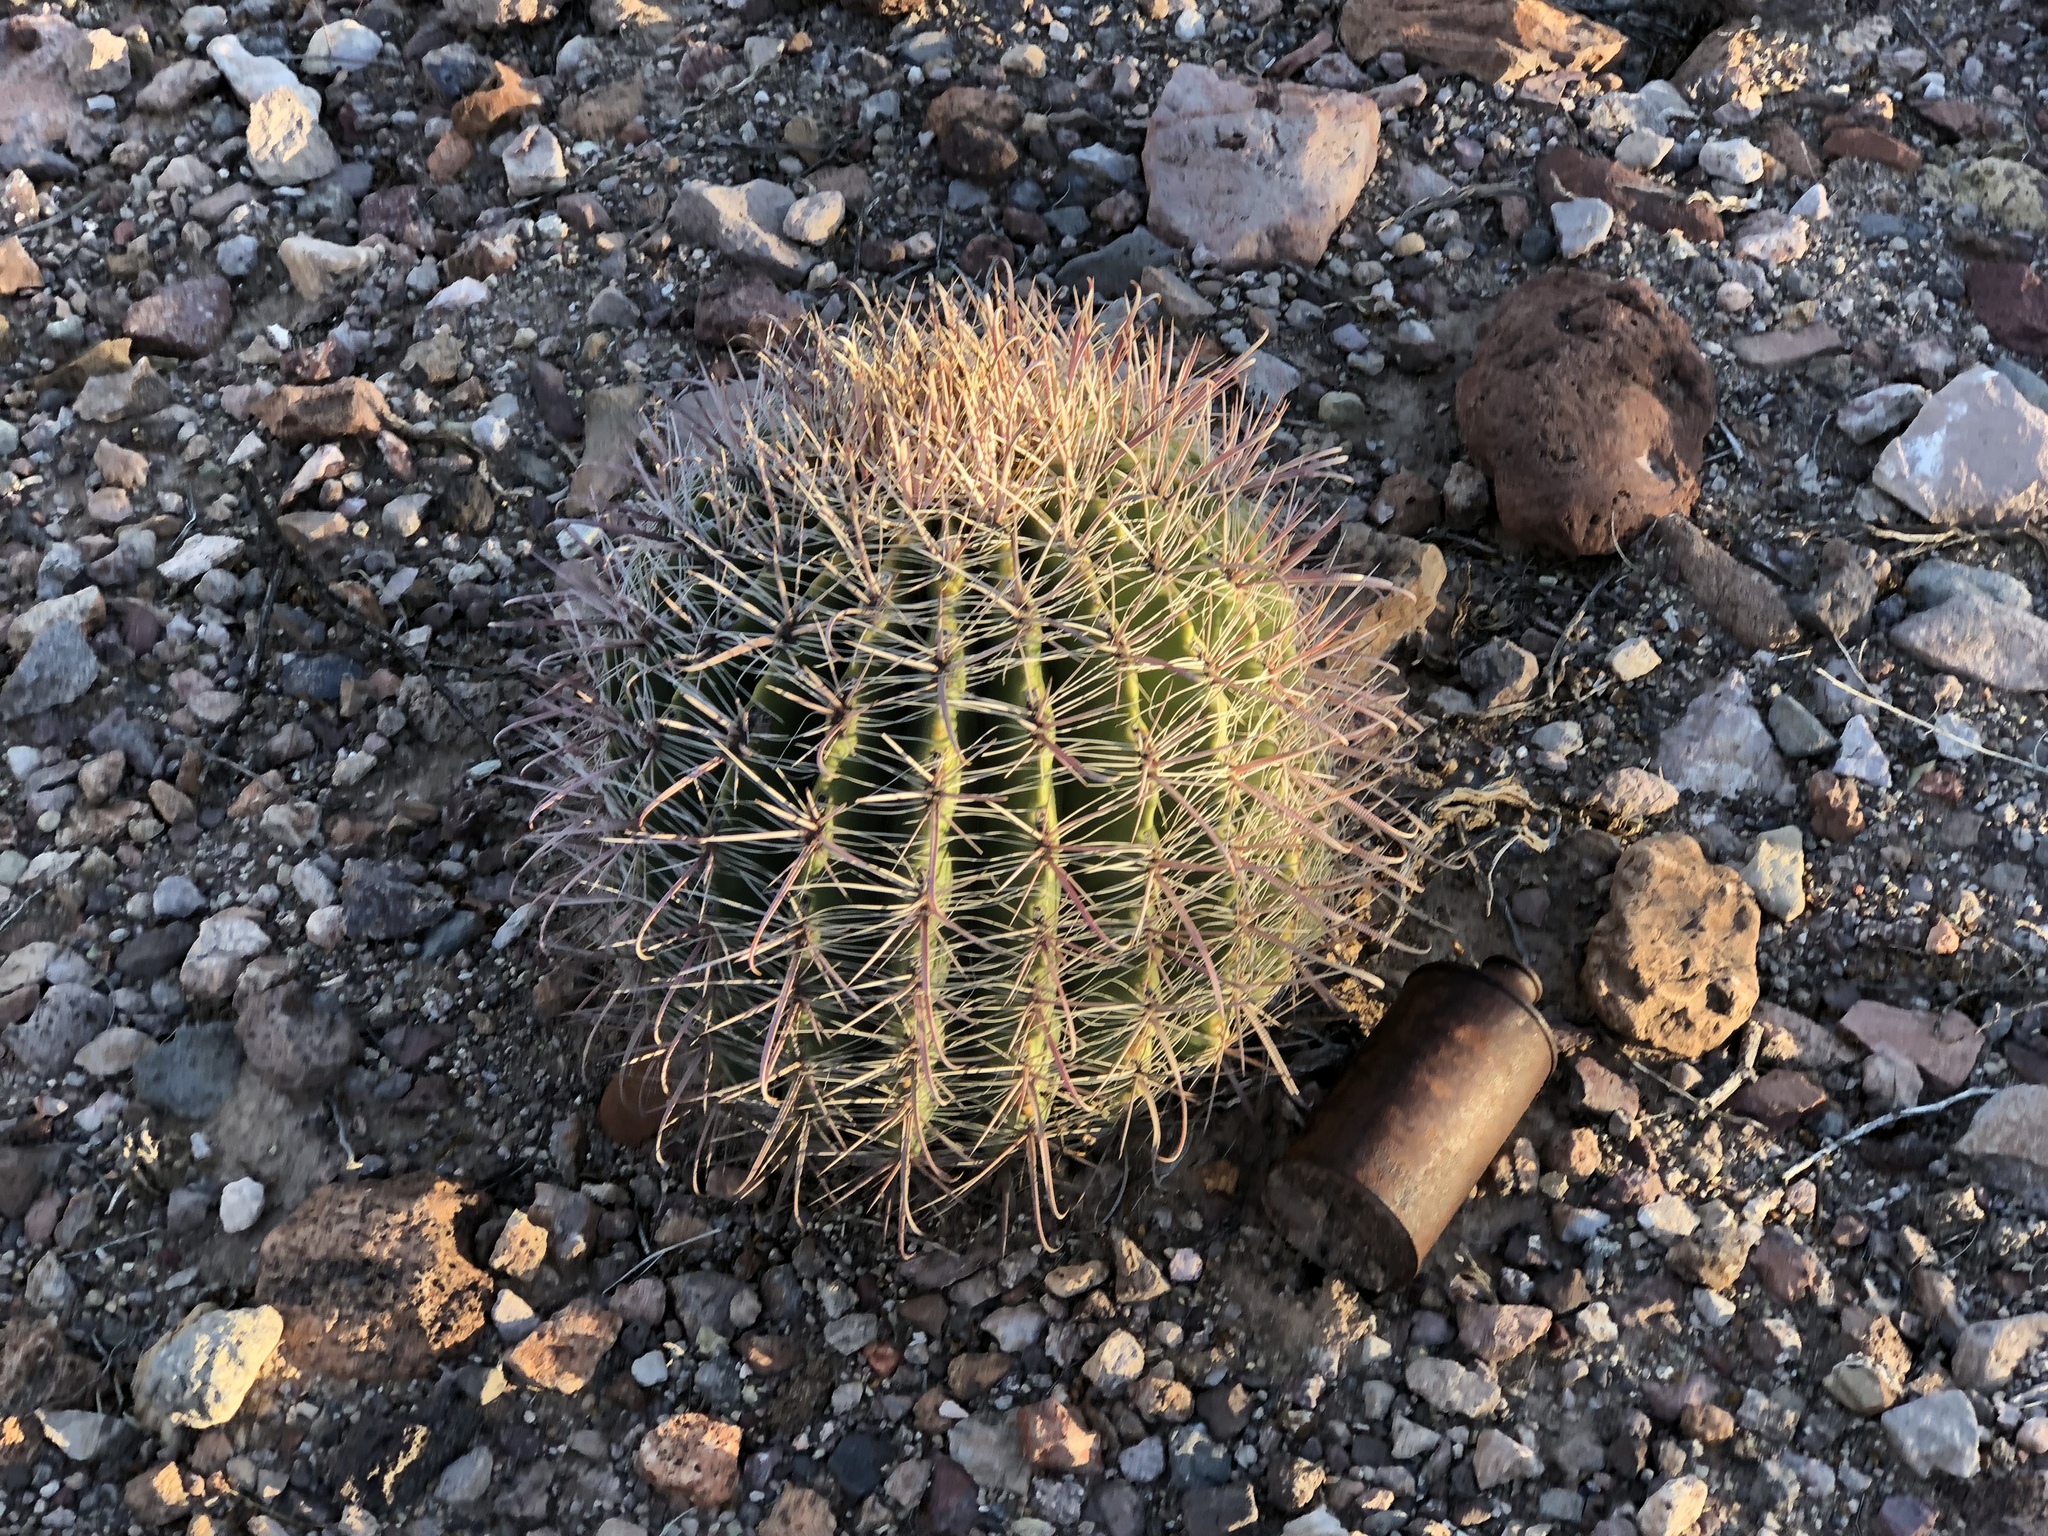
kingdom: Plantae
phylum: Tracheophyta
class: Magnoliopsida
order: Caryophyllales
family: Cactaceae
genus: Ferocactus
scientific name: Ferocactus wislizeni
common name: Candy barrel cactus
